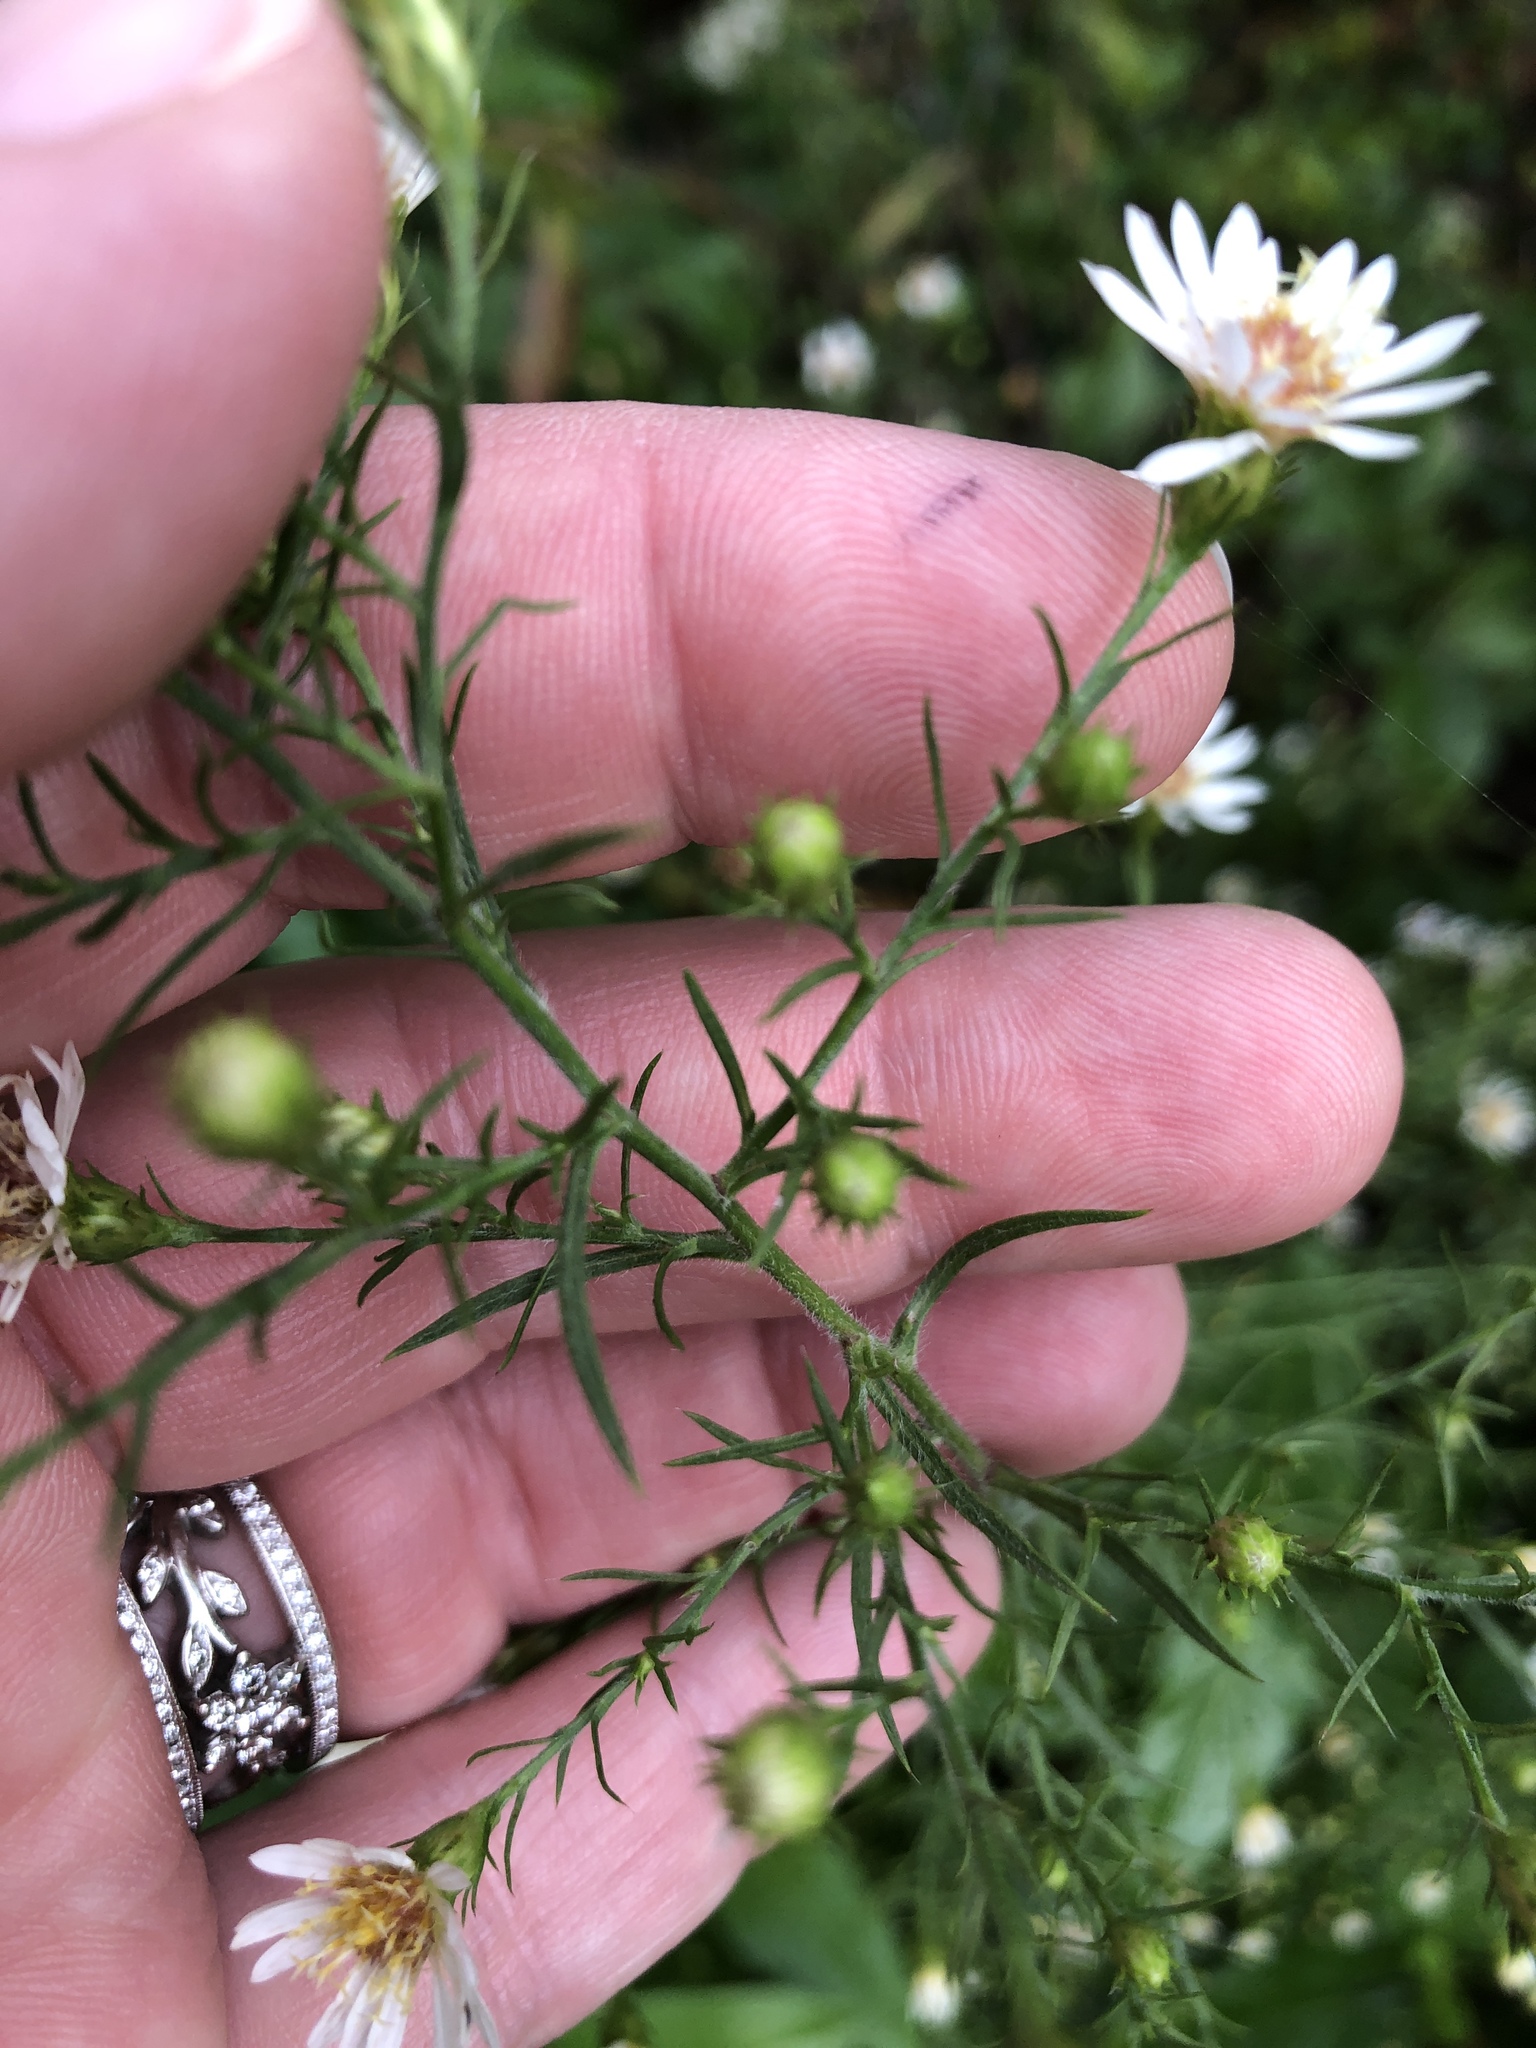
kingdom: Plantae
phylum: Tracheophyta
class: Magnoliopsida
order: Asterales
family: Asteraceae
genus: Symphyotrichum
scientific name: Symphyotrichum pilosum
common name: Awl aster
